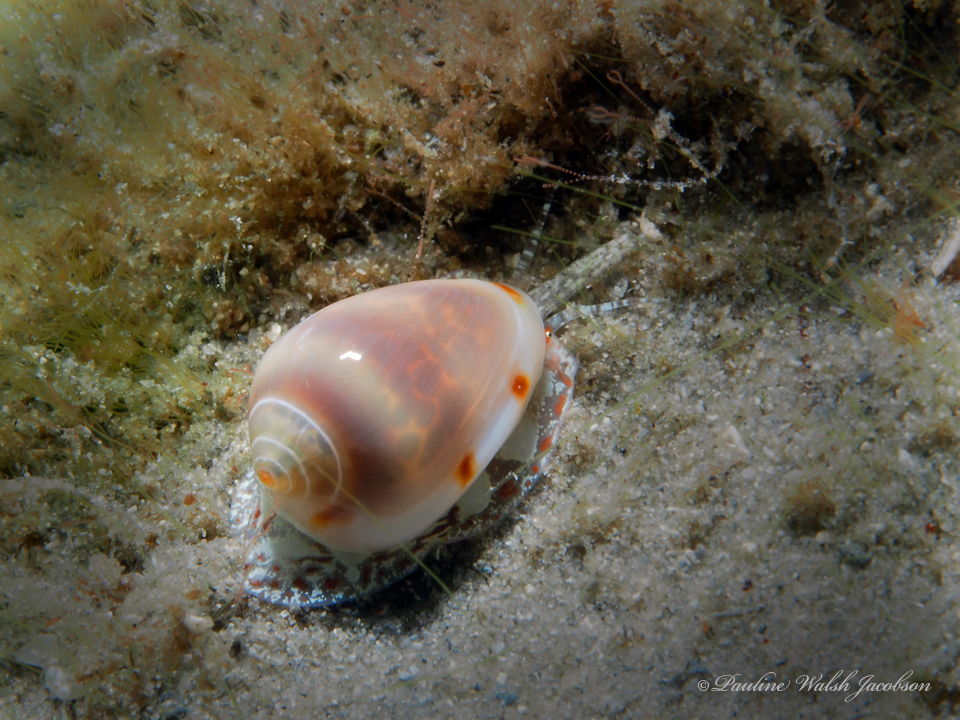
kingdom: Animalia
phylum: Mollusca
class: Gastropoda
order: Neogastropoda
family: Marginellidae
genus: Prunum
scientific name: Prunum apicinum
